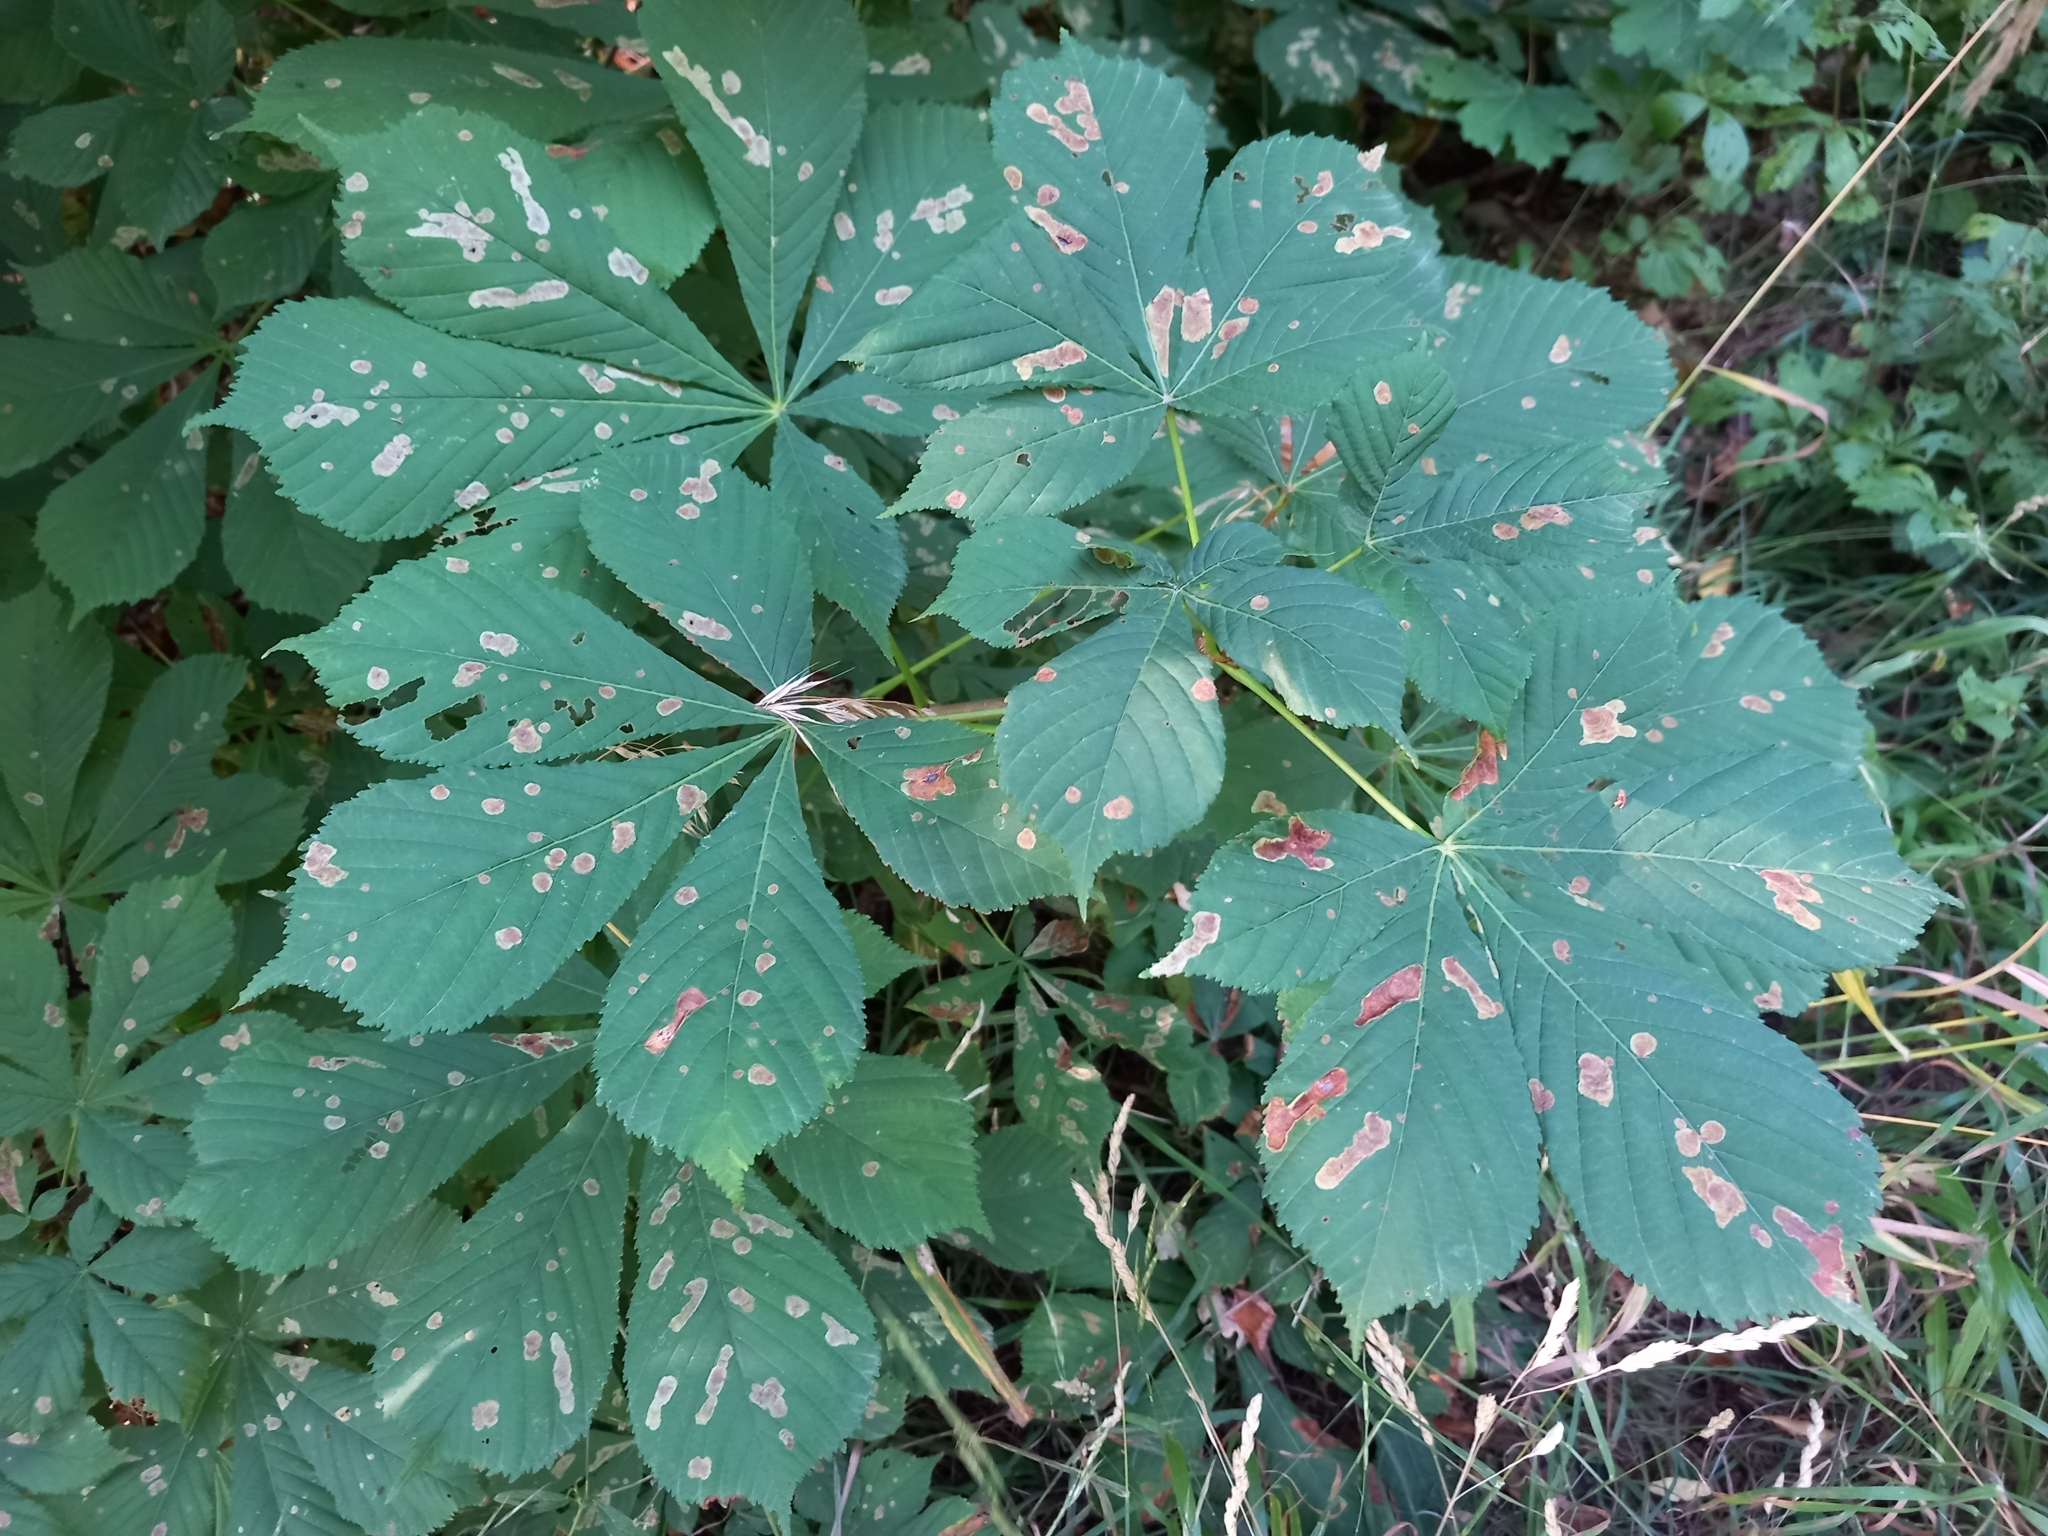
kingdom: Animalia
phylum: Arthropoda
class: Insecta
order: Lepidoptera
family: Gracillariidae
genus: Cameraria
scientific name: Cameraria ohridella
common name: Horse-chestnut leaf-miner
